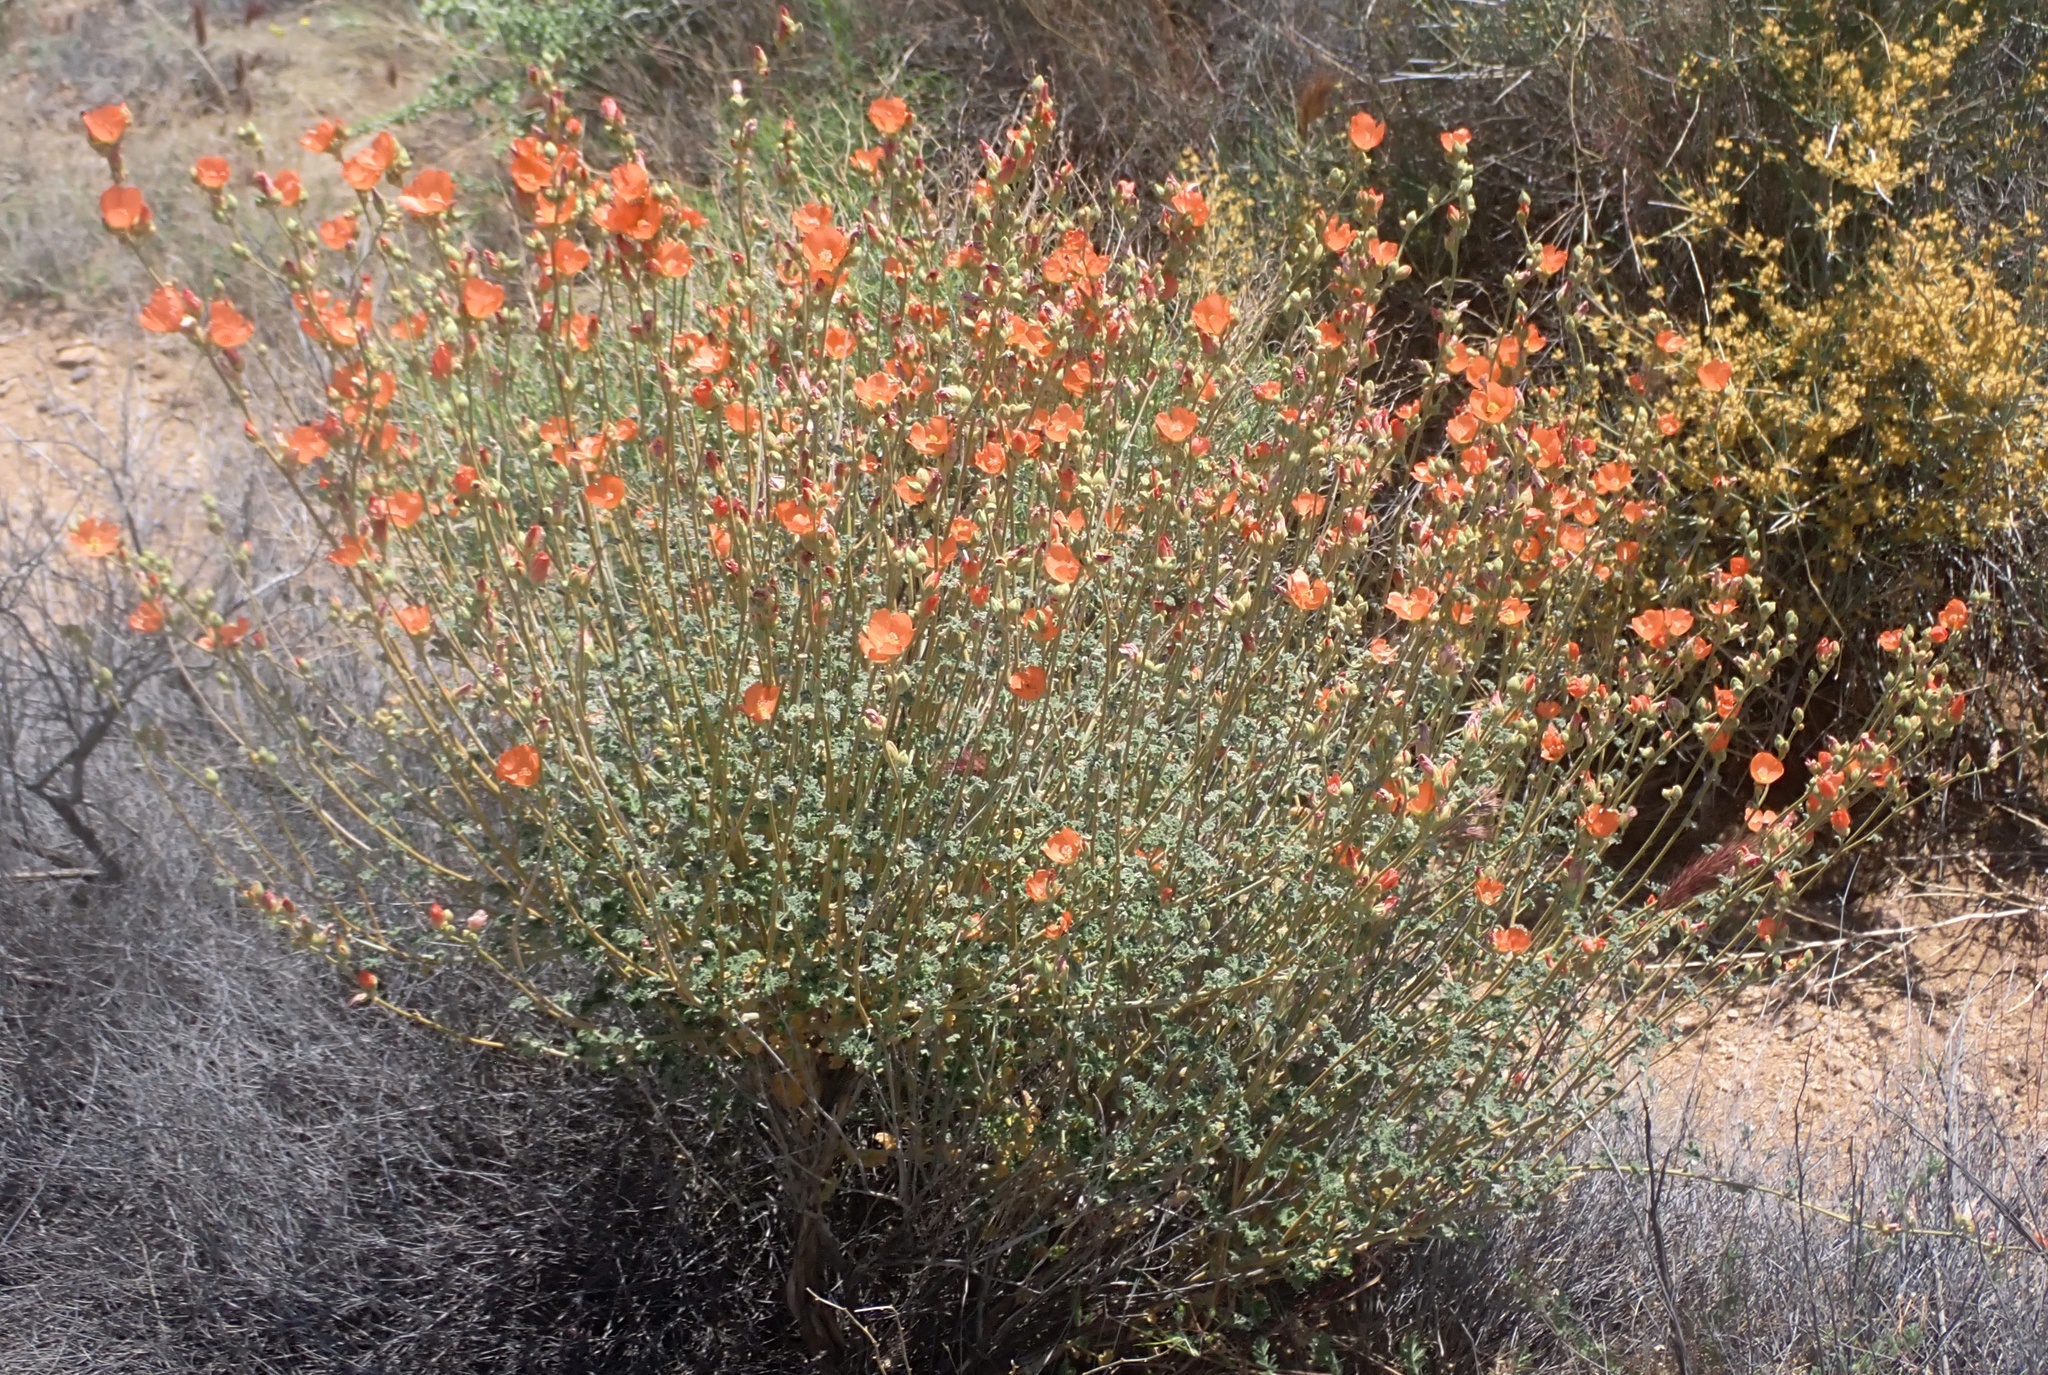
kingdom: Plantae
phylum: Tracheophyta
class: Magnoliopsida
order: Malvales
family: Malvaceae
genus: Sphaeralcea
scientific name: Sphaeralcea ambigua
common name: Apricot globe-mallow
